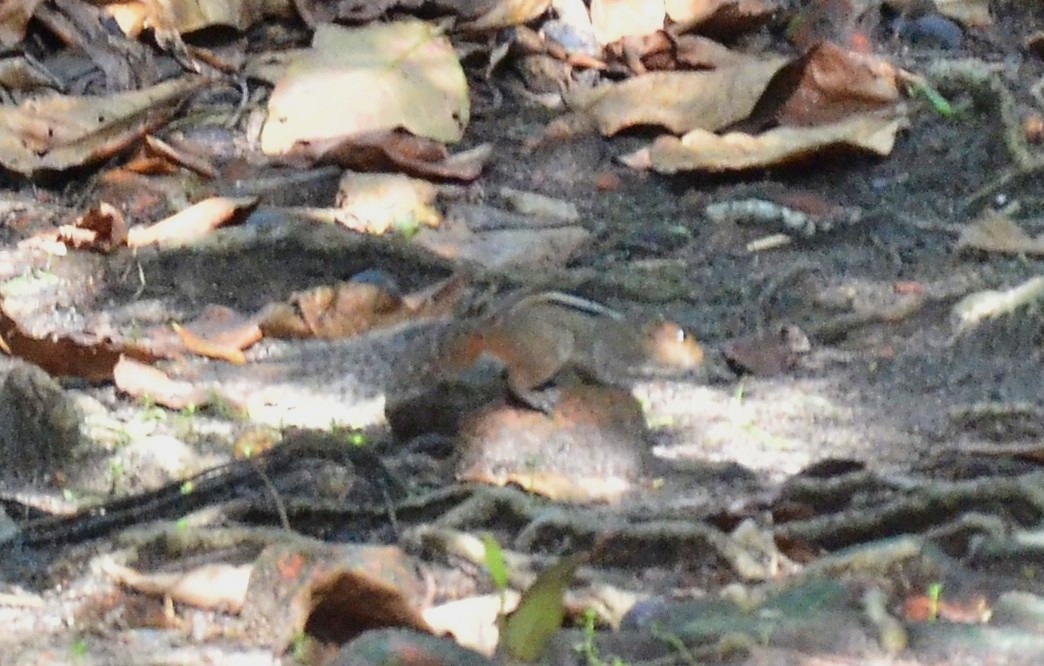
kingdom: Animalia
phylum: Chordata
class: Mammalia
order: Rodentia
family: Sciuridae
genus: Funambulus
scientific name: Funambulus tristriatus
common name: Jungle palm squirrel
